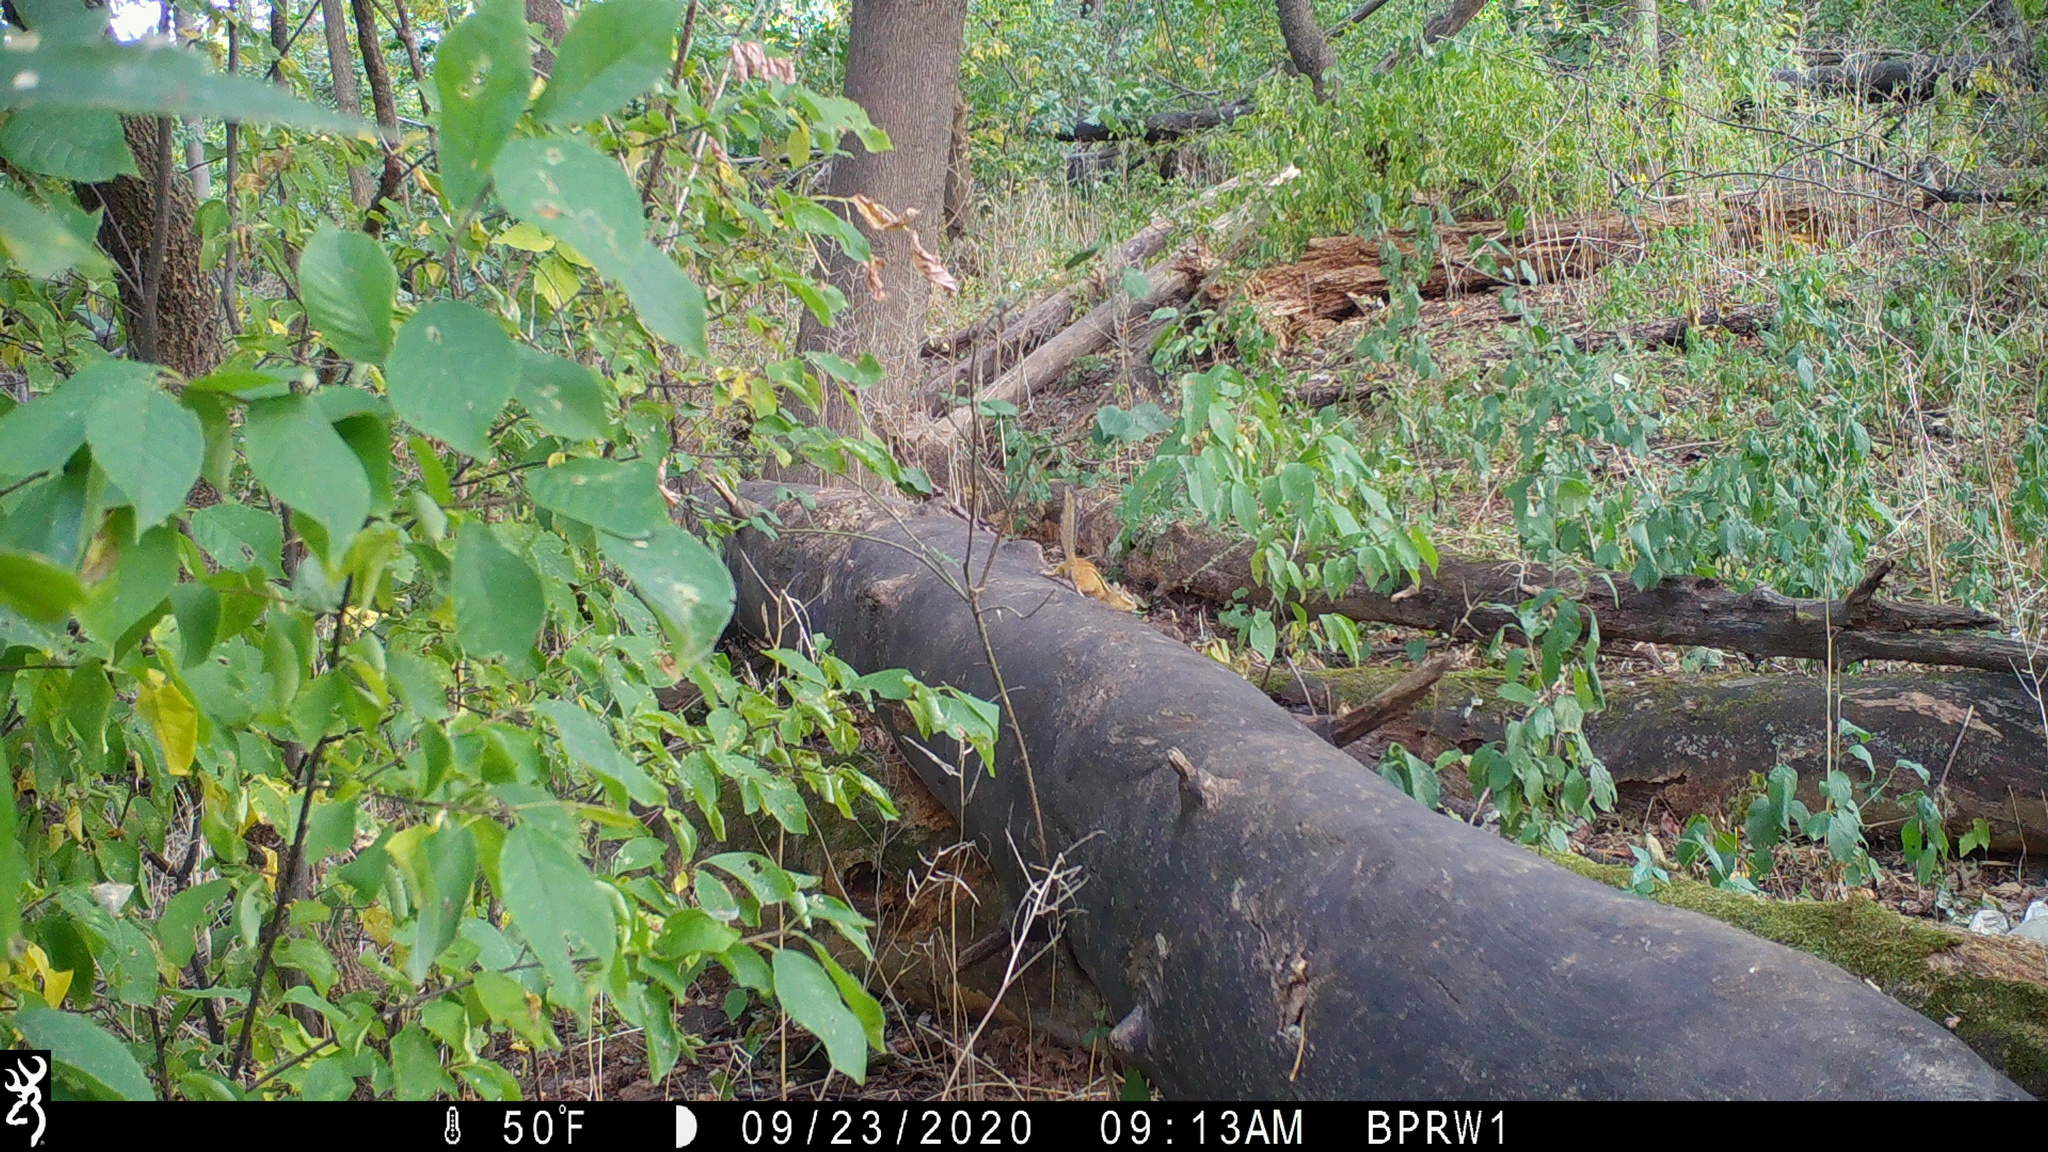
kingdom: Animalia
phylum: Chordata
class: Mammalia
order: Rodentia
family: Sciuridae
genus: Tamias
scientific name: Tamias striatus
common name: Eastern chipmunk
